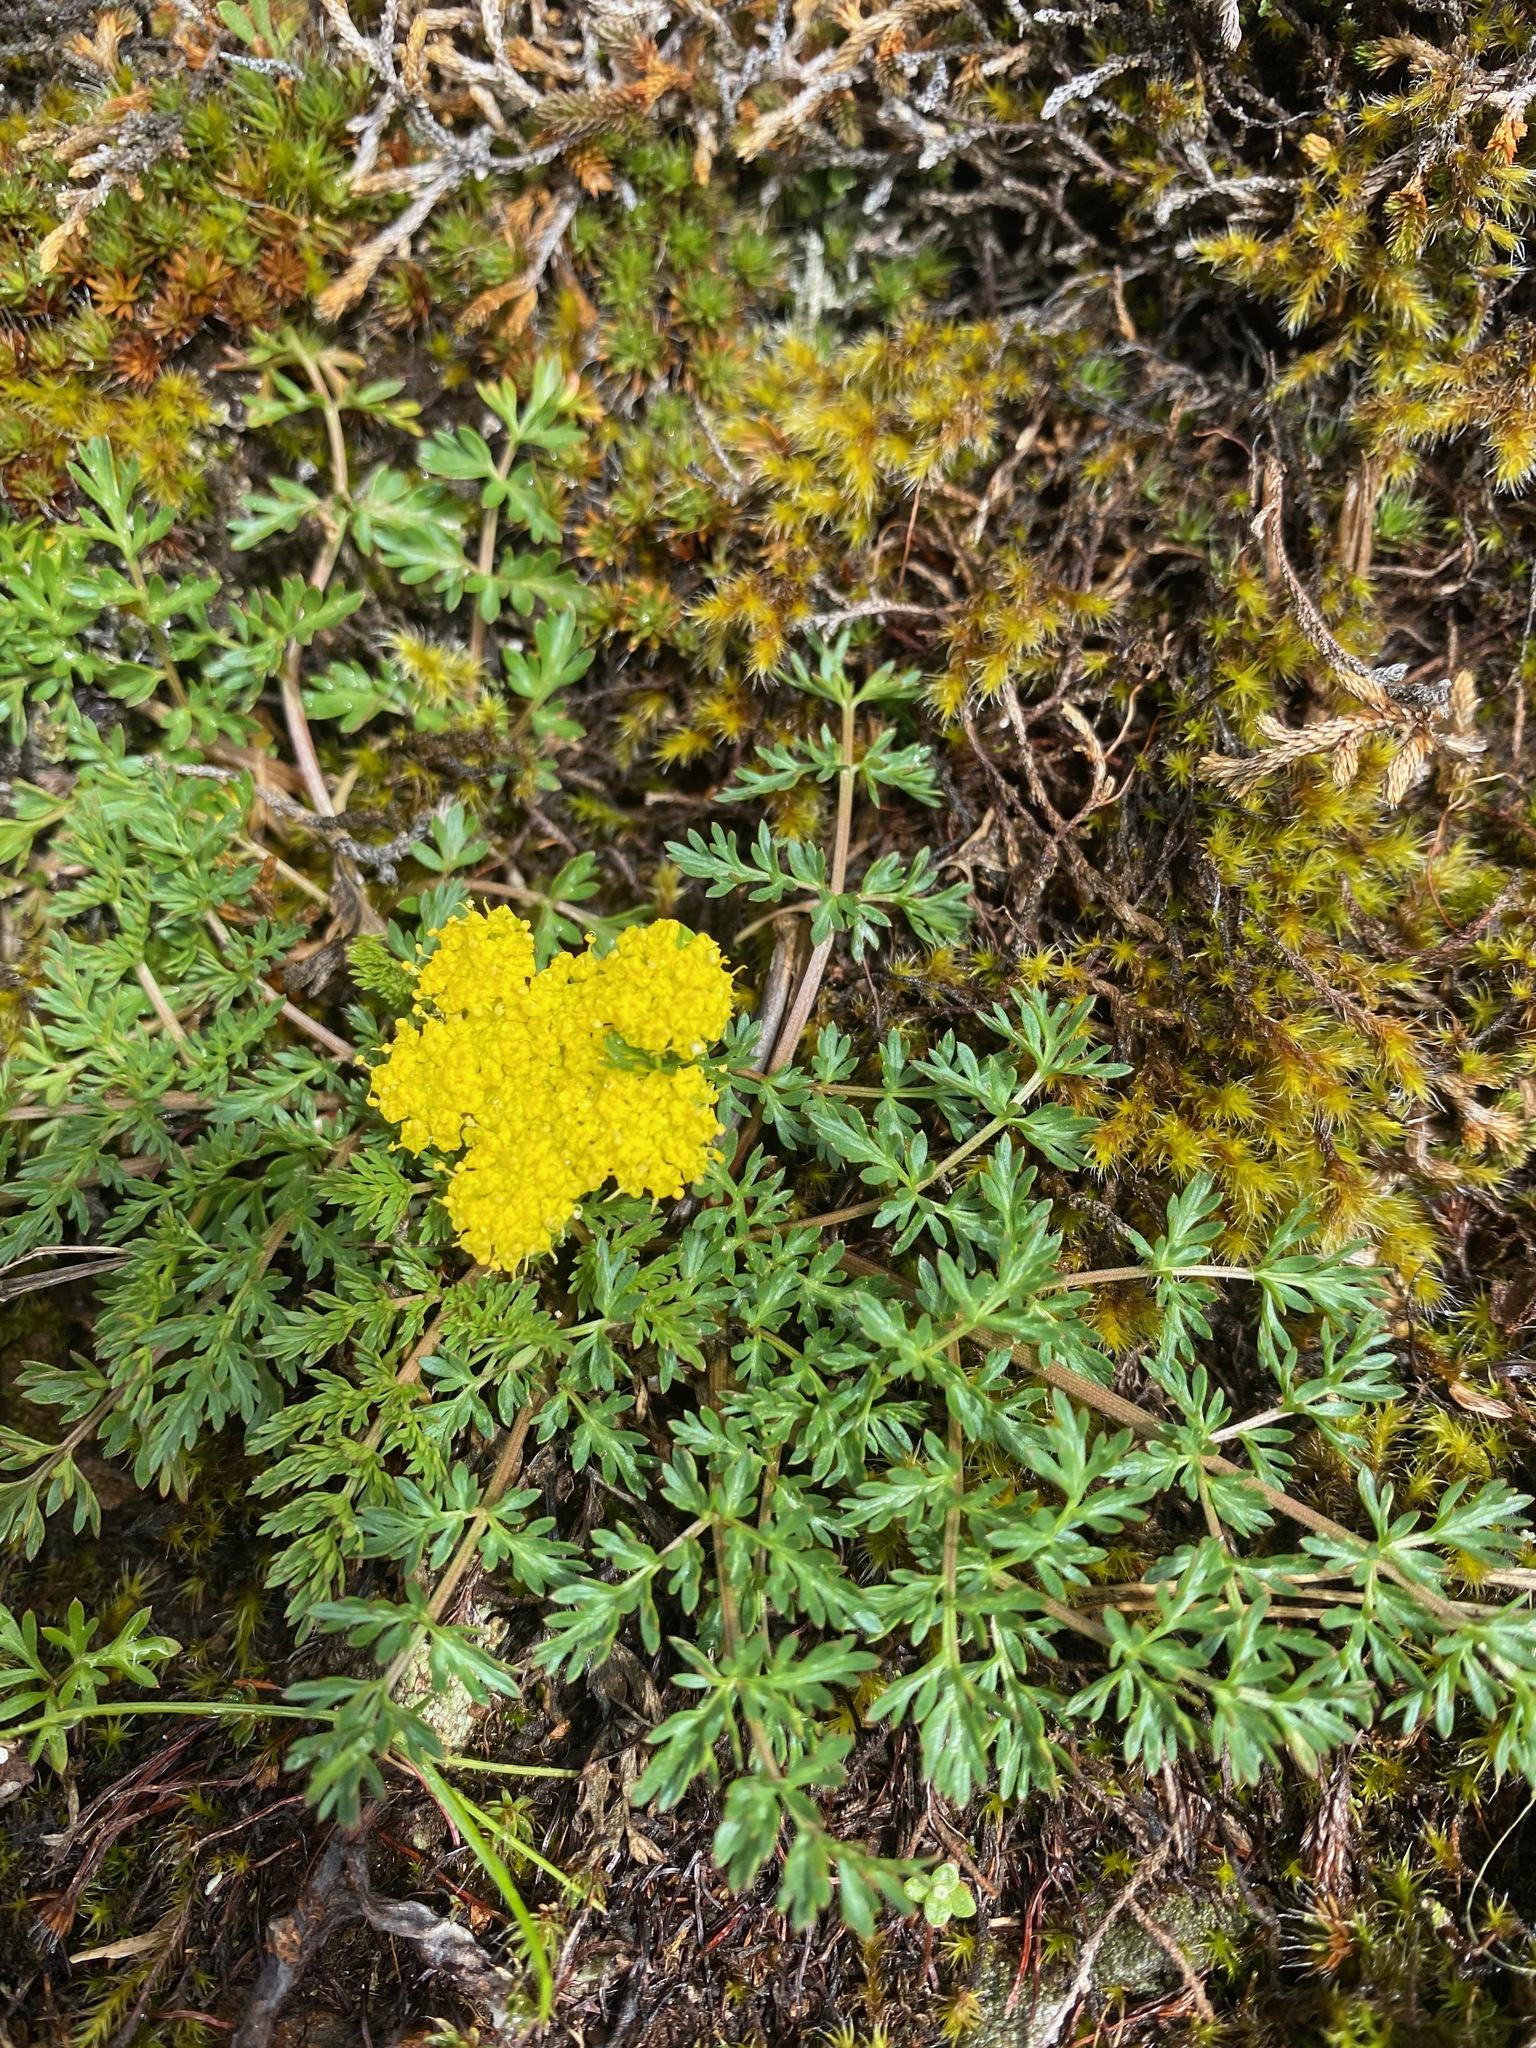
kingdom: Plantae
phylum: Tracheophyta
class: Magnoliopsida
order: Apiales
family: Apiaceae
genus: Lomatium
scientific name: Lomatium utriculatum
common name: Fine-leaf desert-parsley
